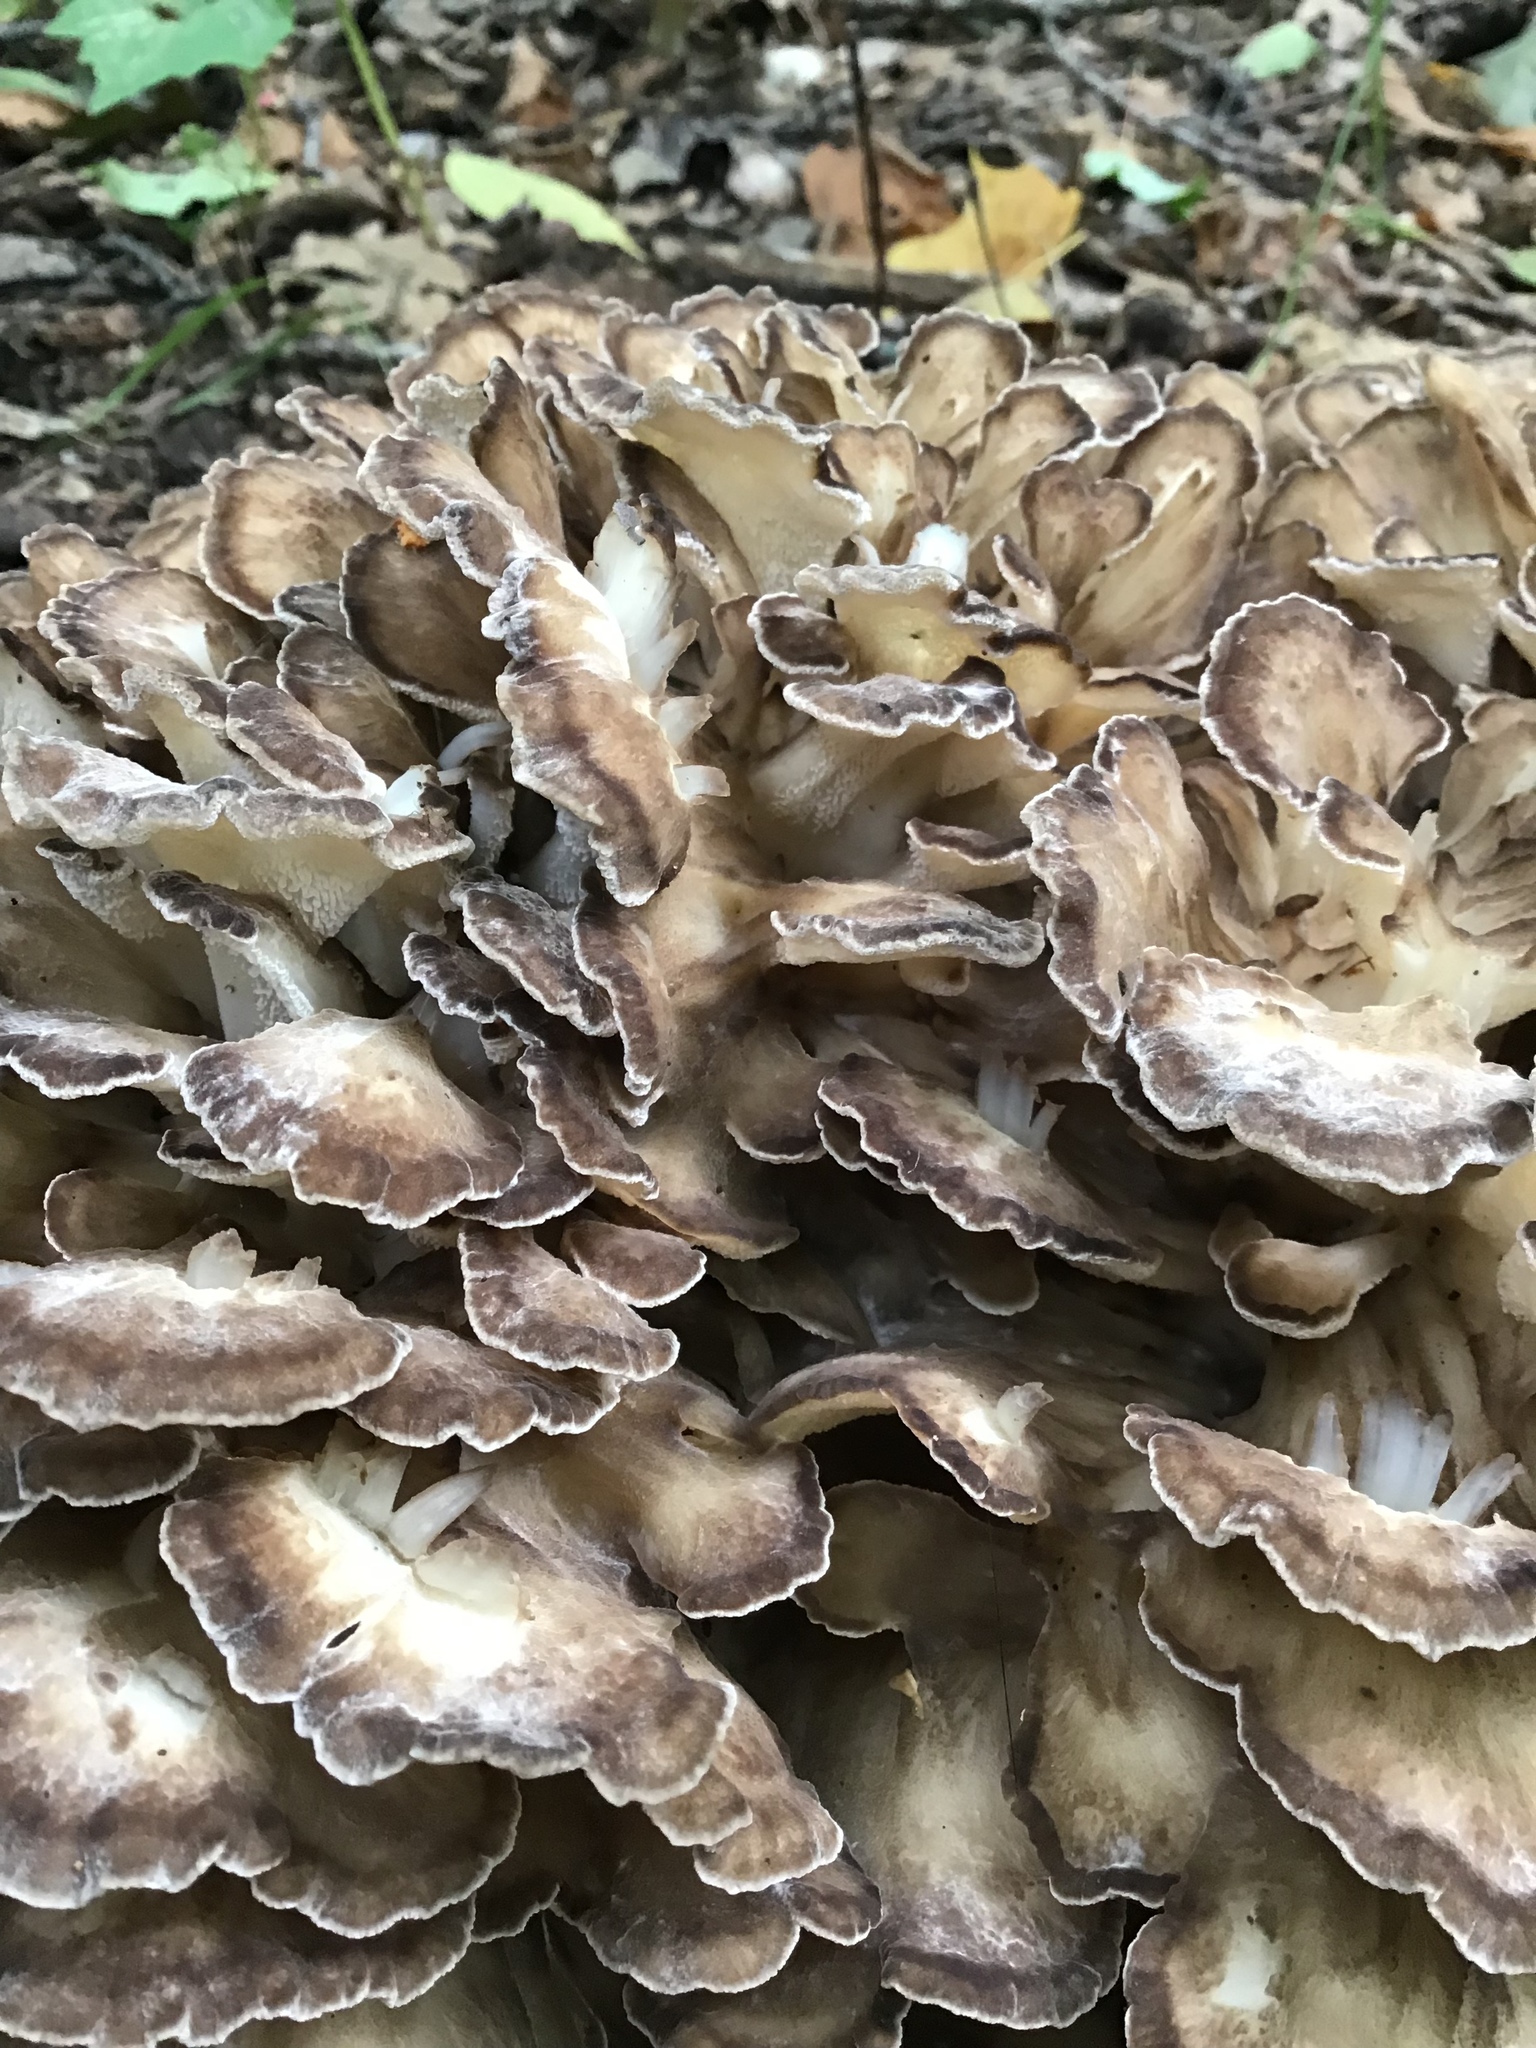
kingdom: Fungi
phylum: Basidiomycota
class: Agaricomycetes
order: Polyporales
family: Grifolaceae
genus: Grifola
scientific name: Grifola frondosa
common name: Hen of the woods
